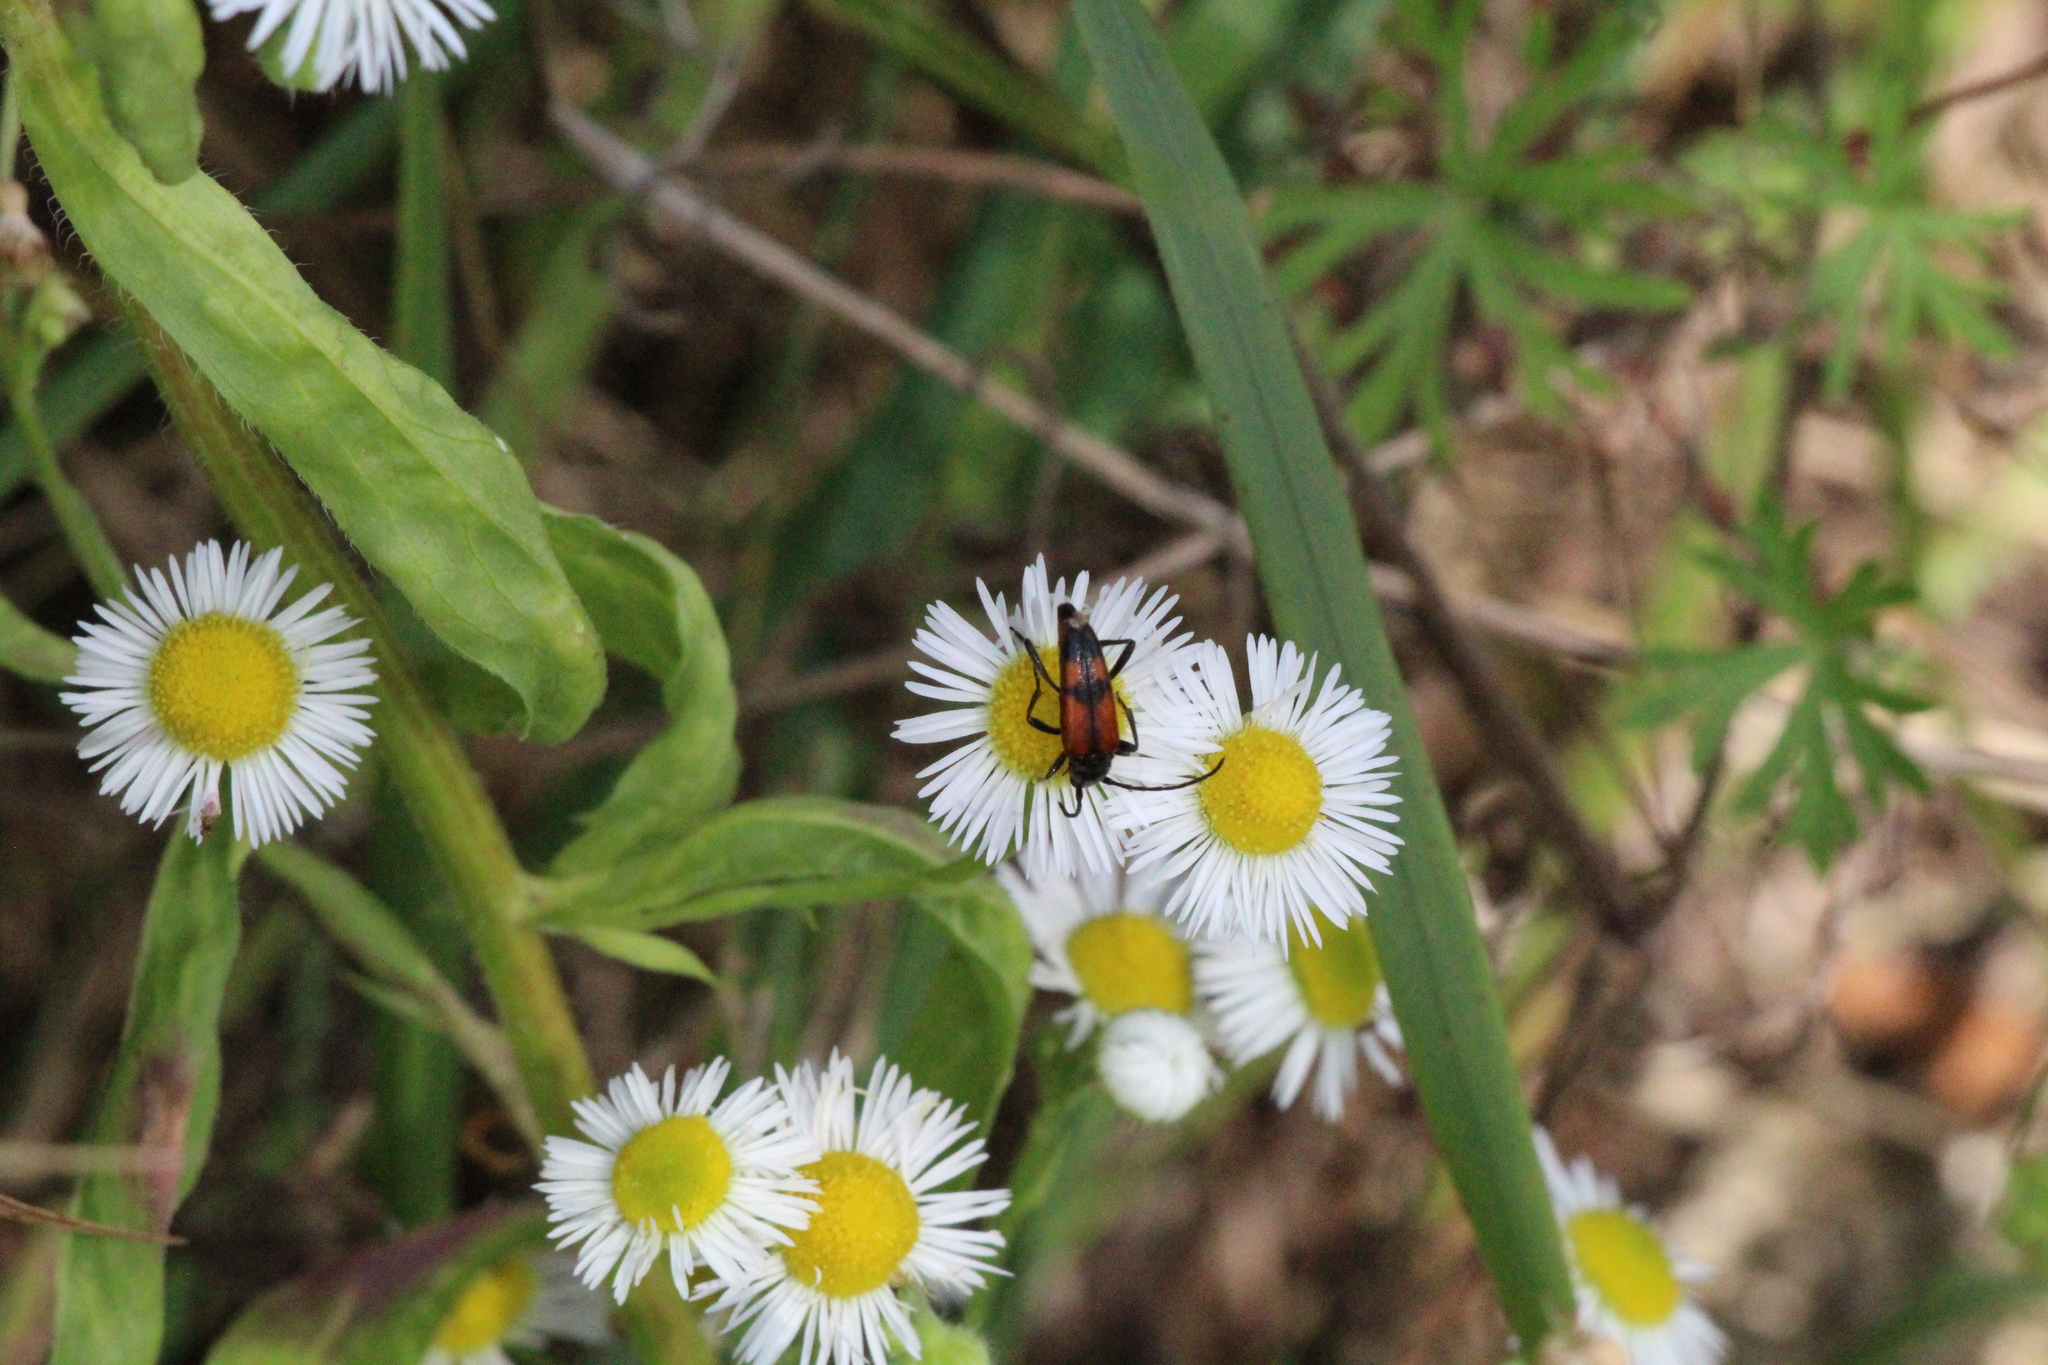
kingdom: Plantae
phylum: Tracheophyta
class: Magnoliopsida
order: Asterales
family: Asteraceae
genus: Erigeron
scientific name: Erigeron annuus
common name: Tall fleabane
